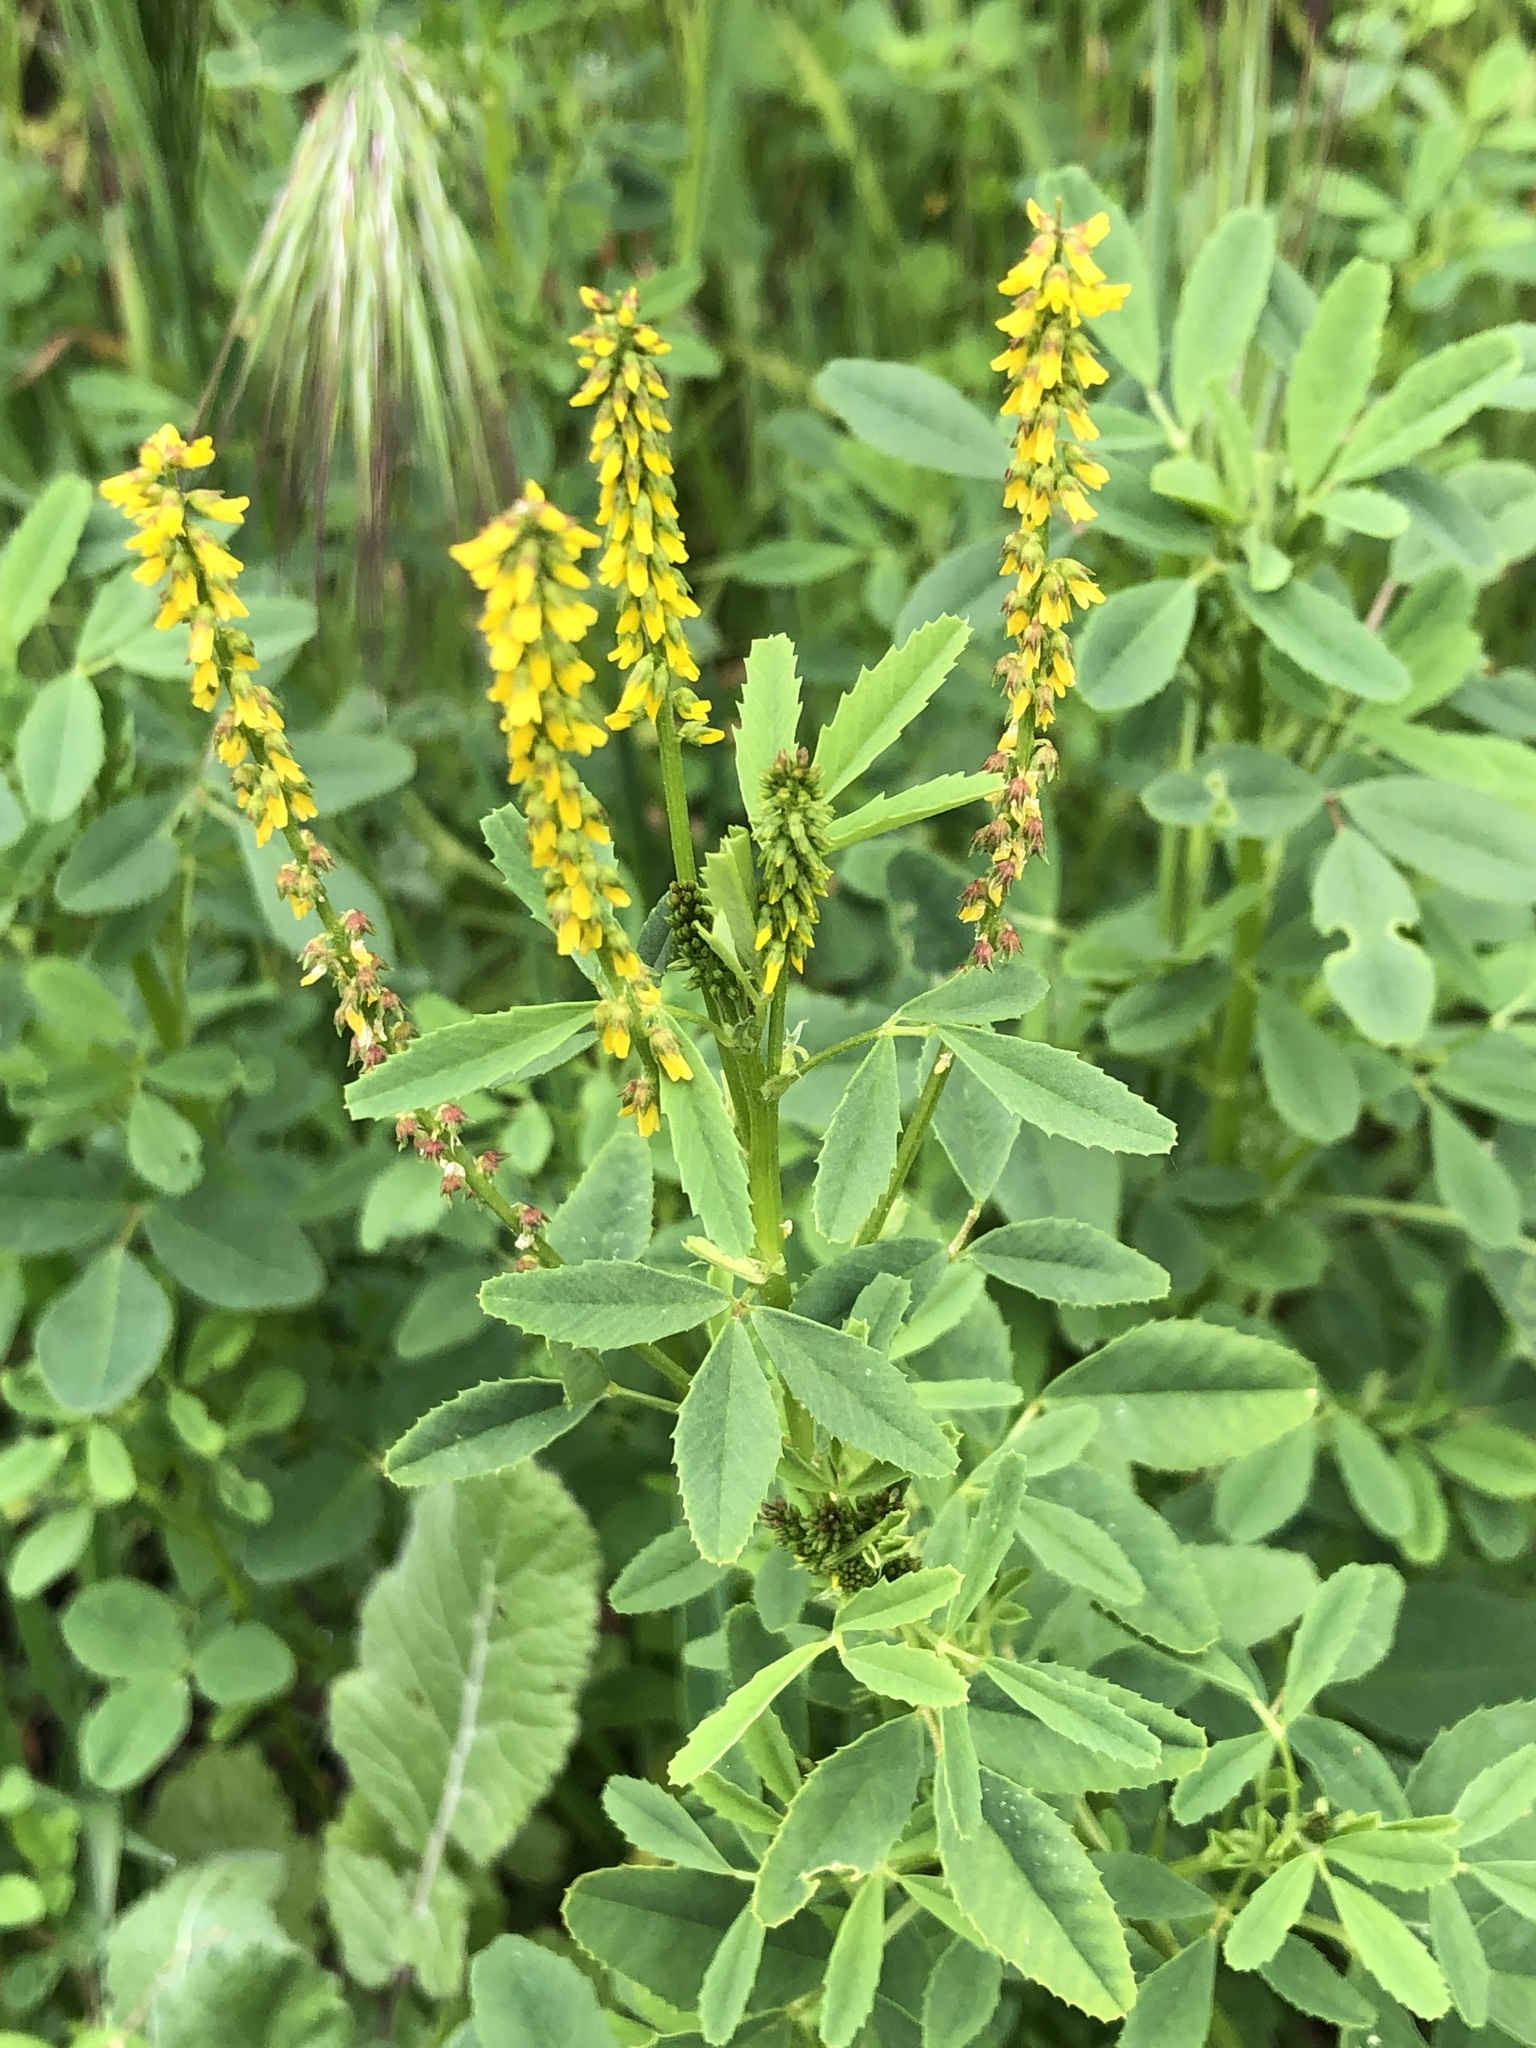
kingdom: Plantae
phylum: Tracheophyta
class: Magnoliopsida
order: Fabales
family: Fabaceae
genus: Melilotus
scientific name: Melilotus indicus
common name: Small melilot
